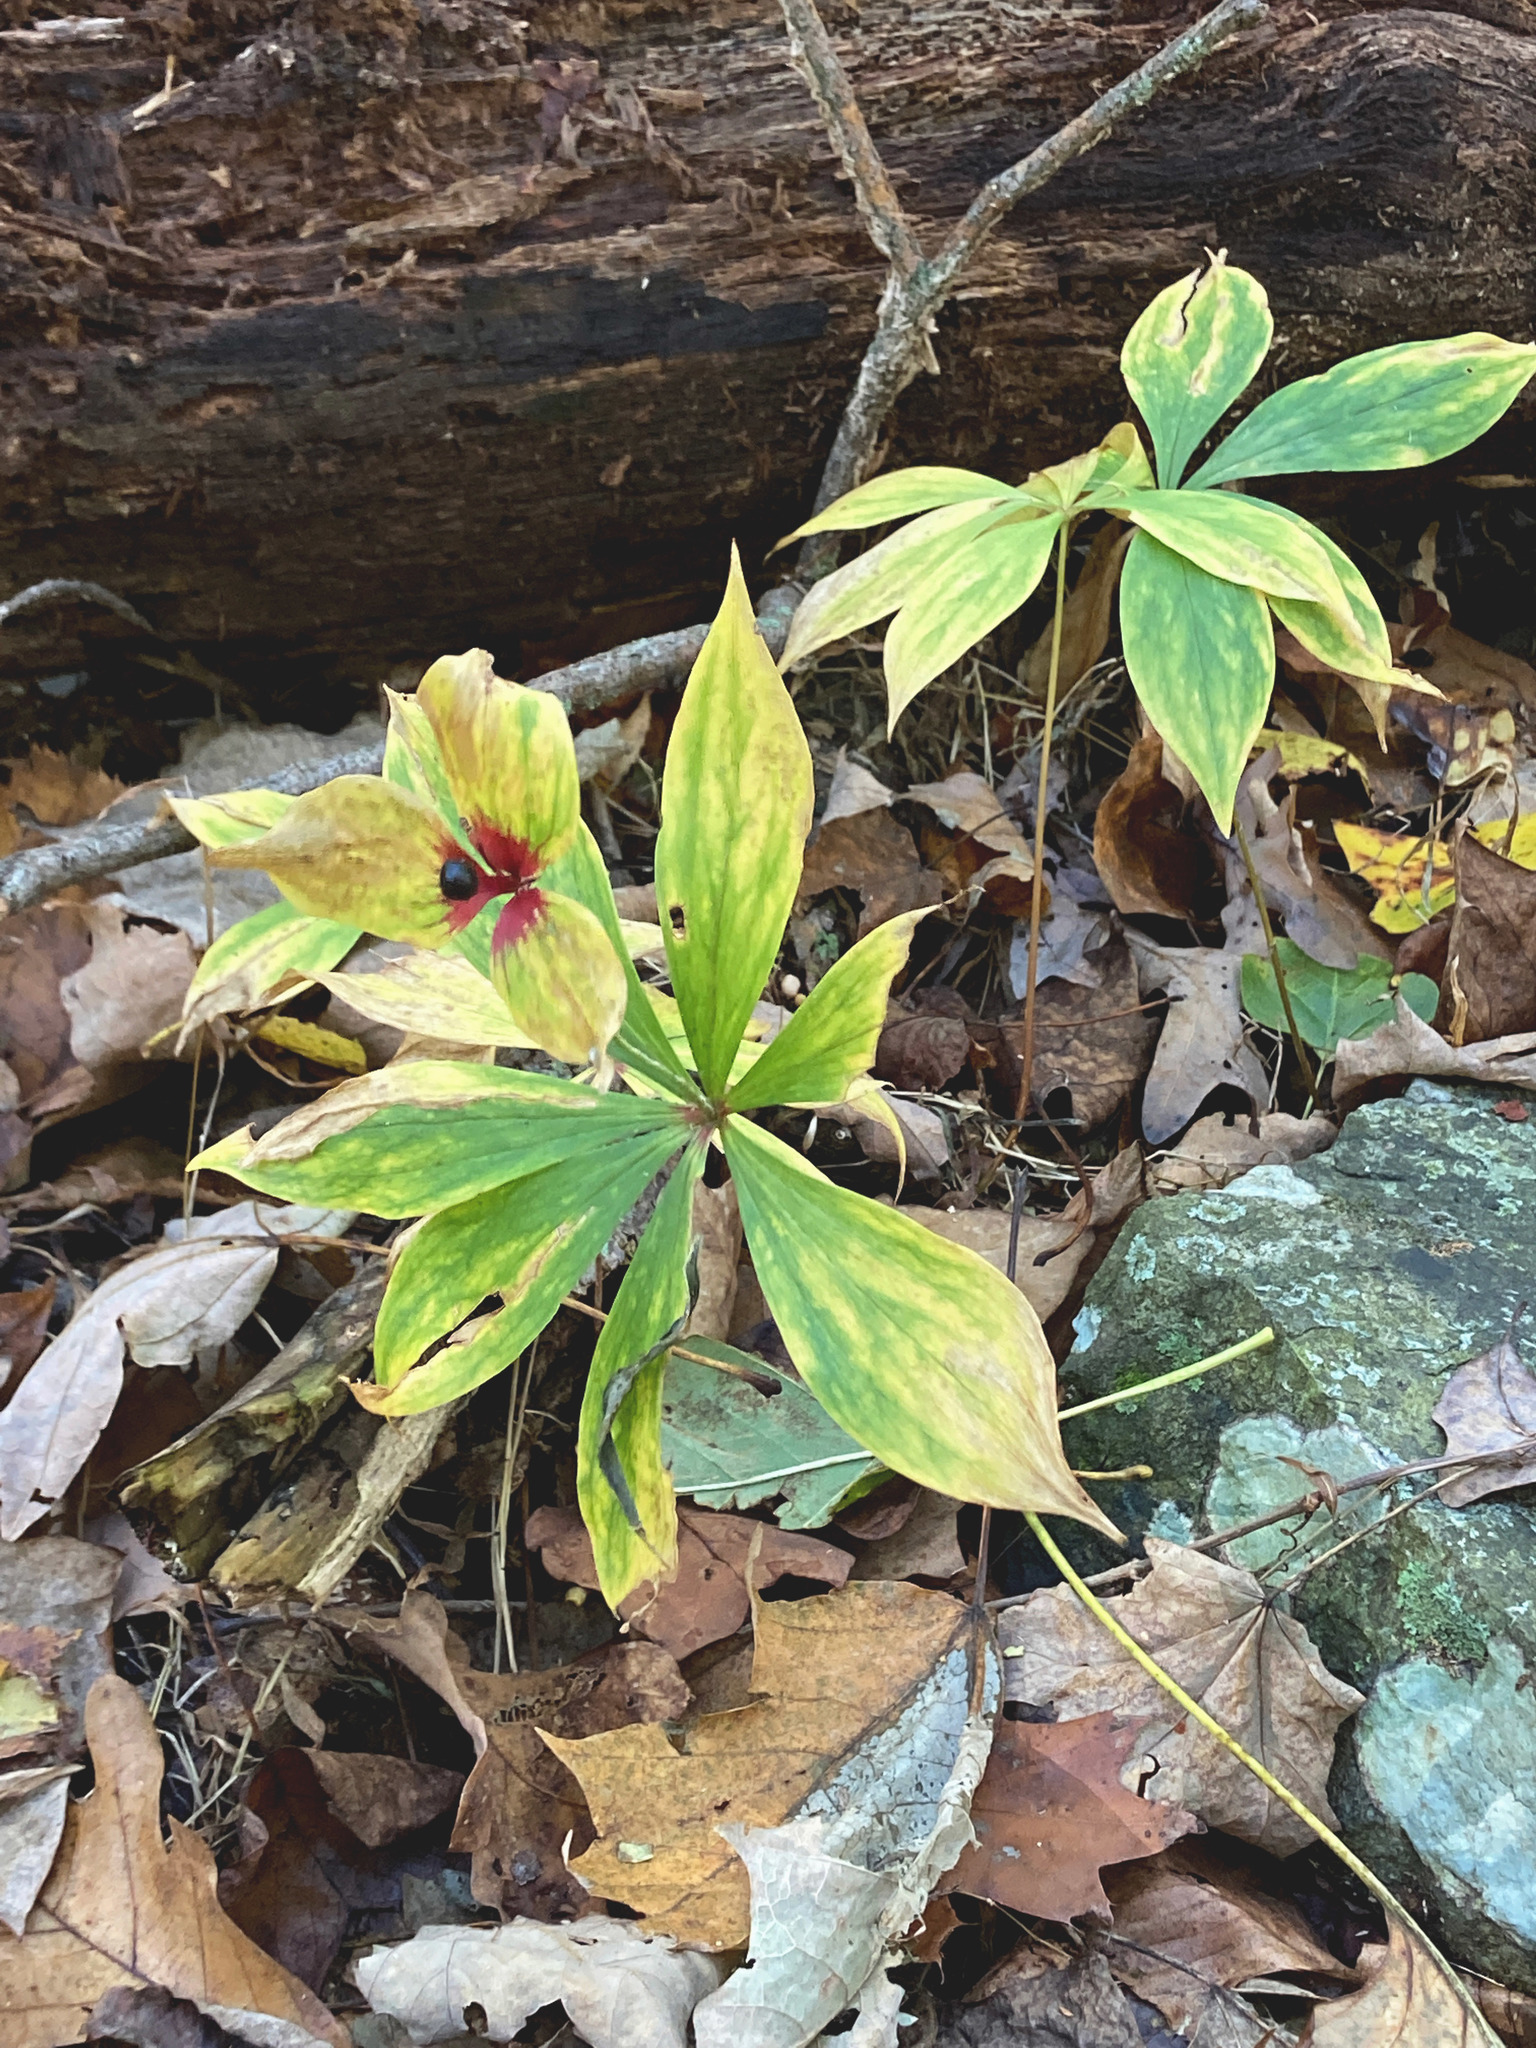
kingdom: Plantae
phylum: Tracheophyta
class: Liliopsida
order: Liliales
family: Liliaceae
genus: Medeola
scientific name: Medeola virginiana
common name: Indian cucumber-root
